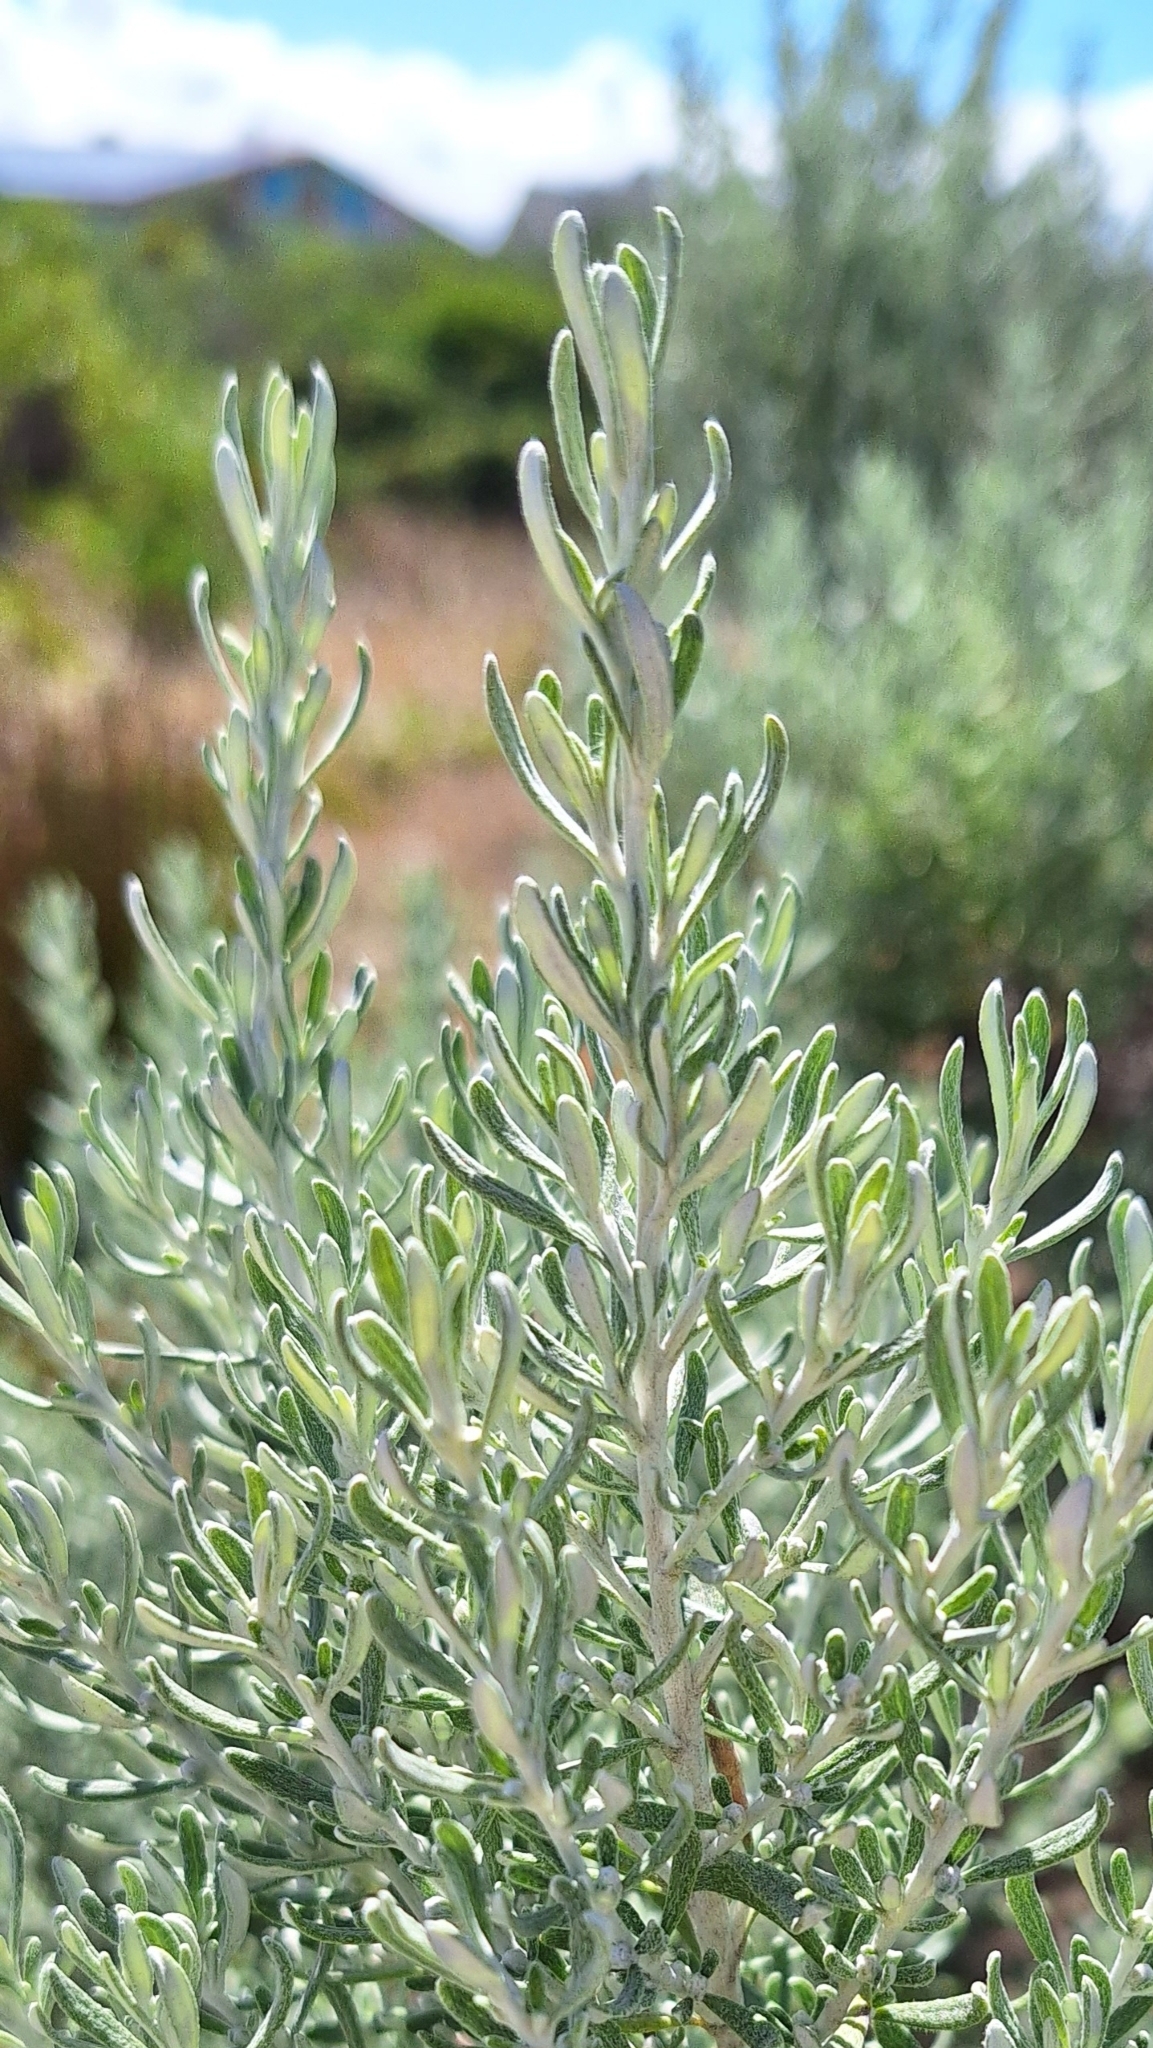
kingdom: Plantae
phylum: Tracheophyta
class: Magnoliopsida
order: Asterales
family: Asteraceae
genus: Olearia
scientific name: Olearia axillaris
